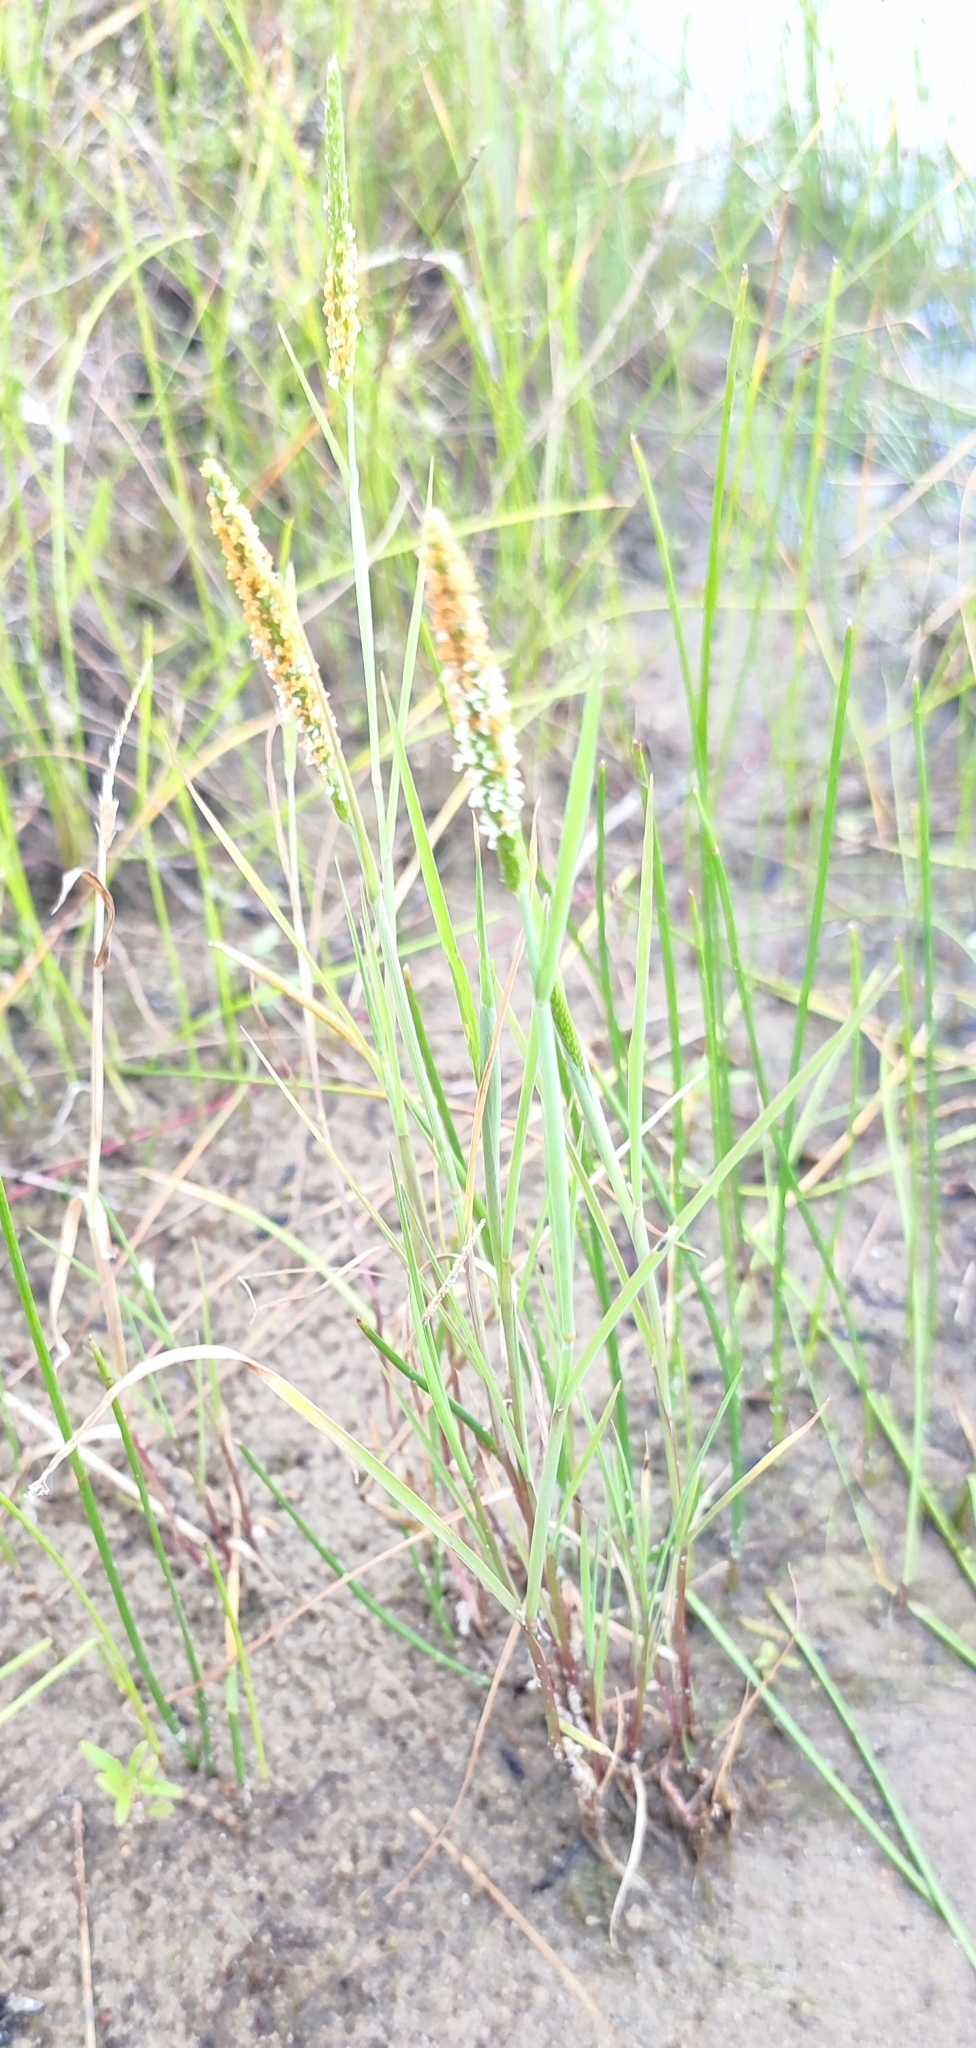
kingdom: Plantae
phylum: Tracheophyta
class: Liliopsida
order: Poales
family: Poaceae
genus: Alopecurus
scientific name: Alopecurus aequalis
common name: Orange foxtail
